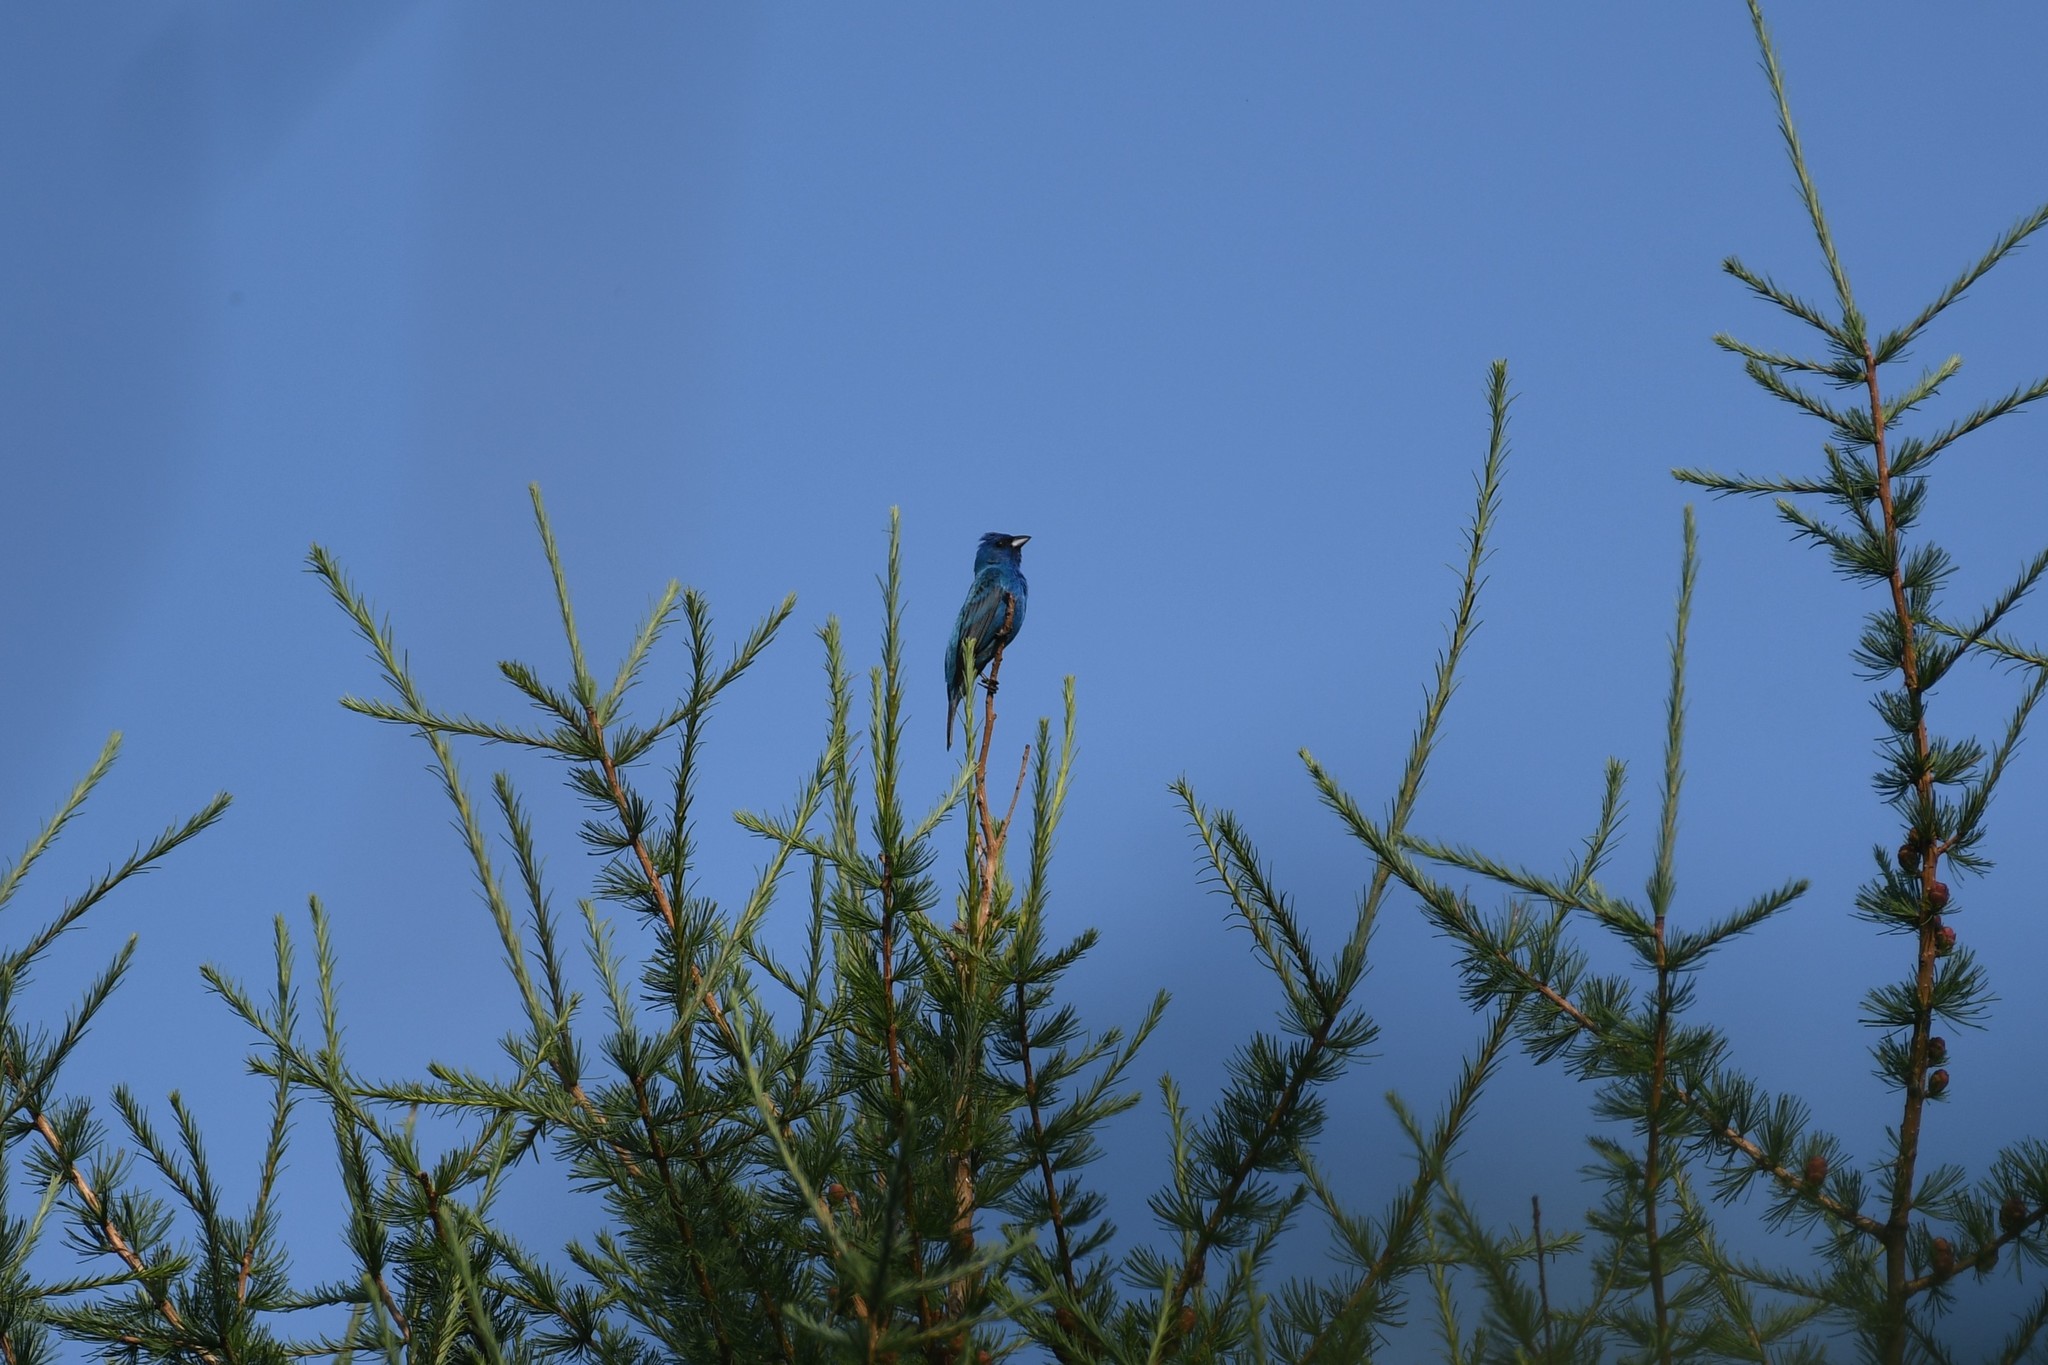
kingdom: Animalia
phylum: Chordata
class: Aves
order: Passeriformes
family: Cardinalidae
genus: Passerina
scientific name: Passerina cyanea
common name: Indigo bunting
